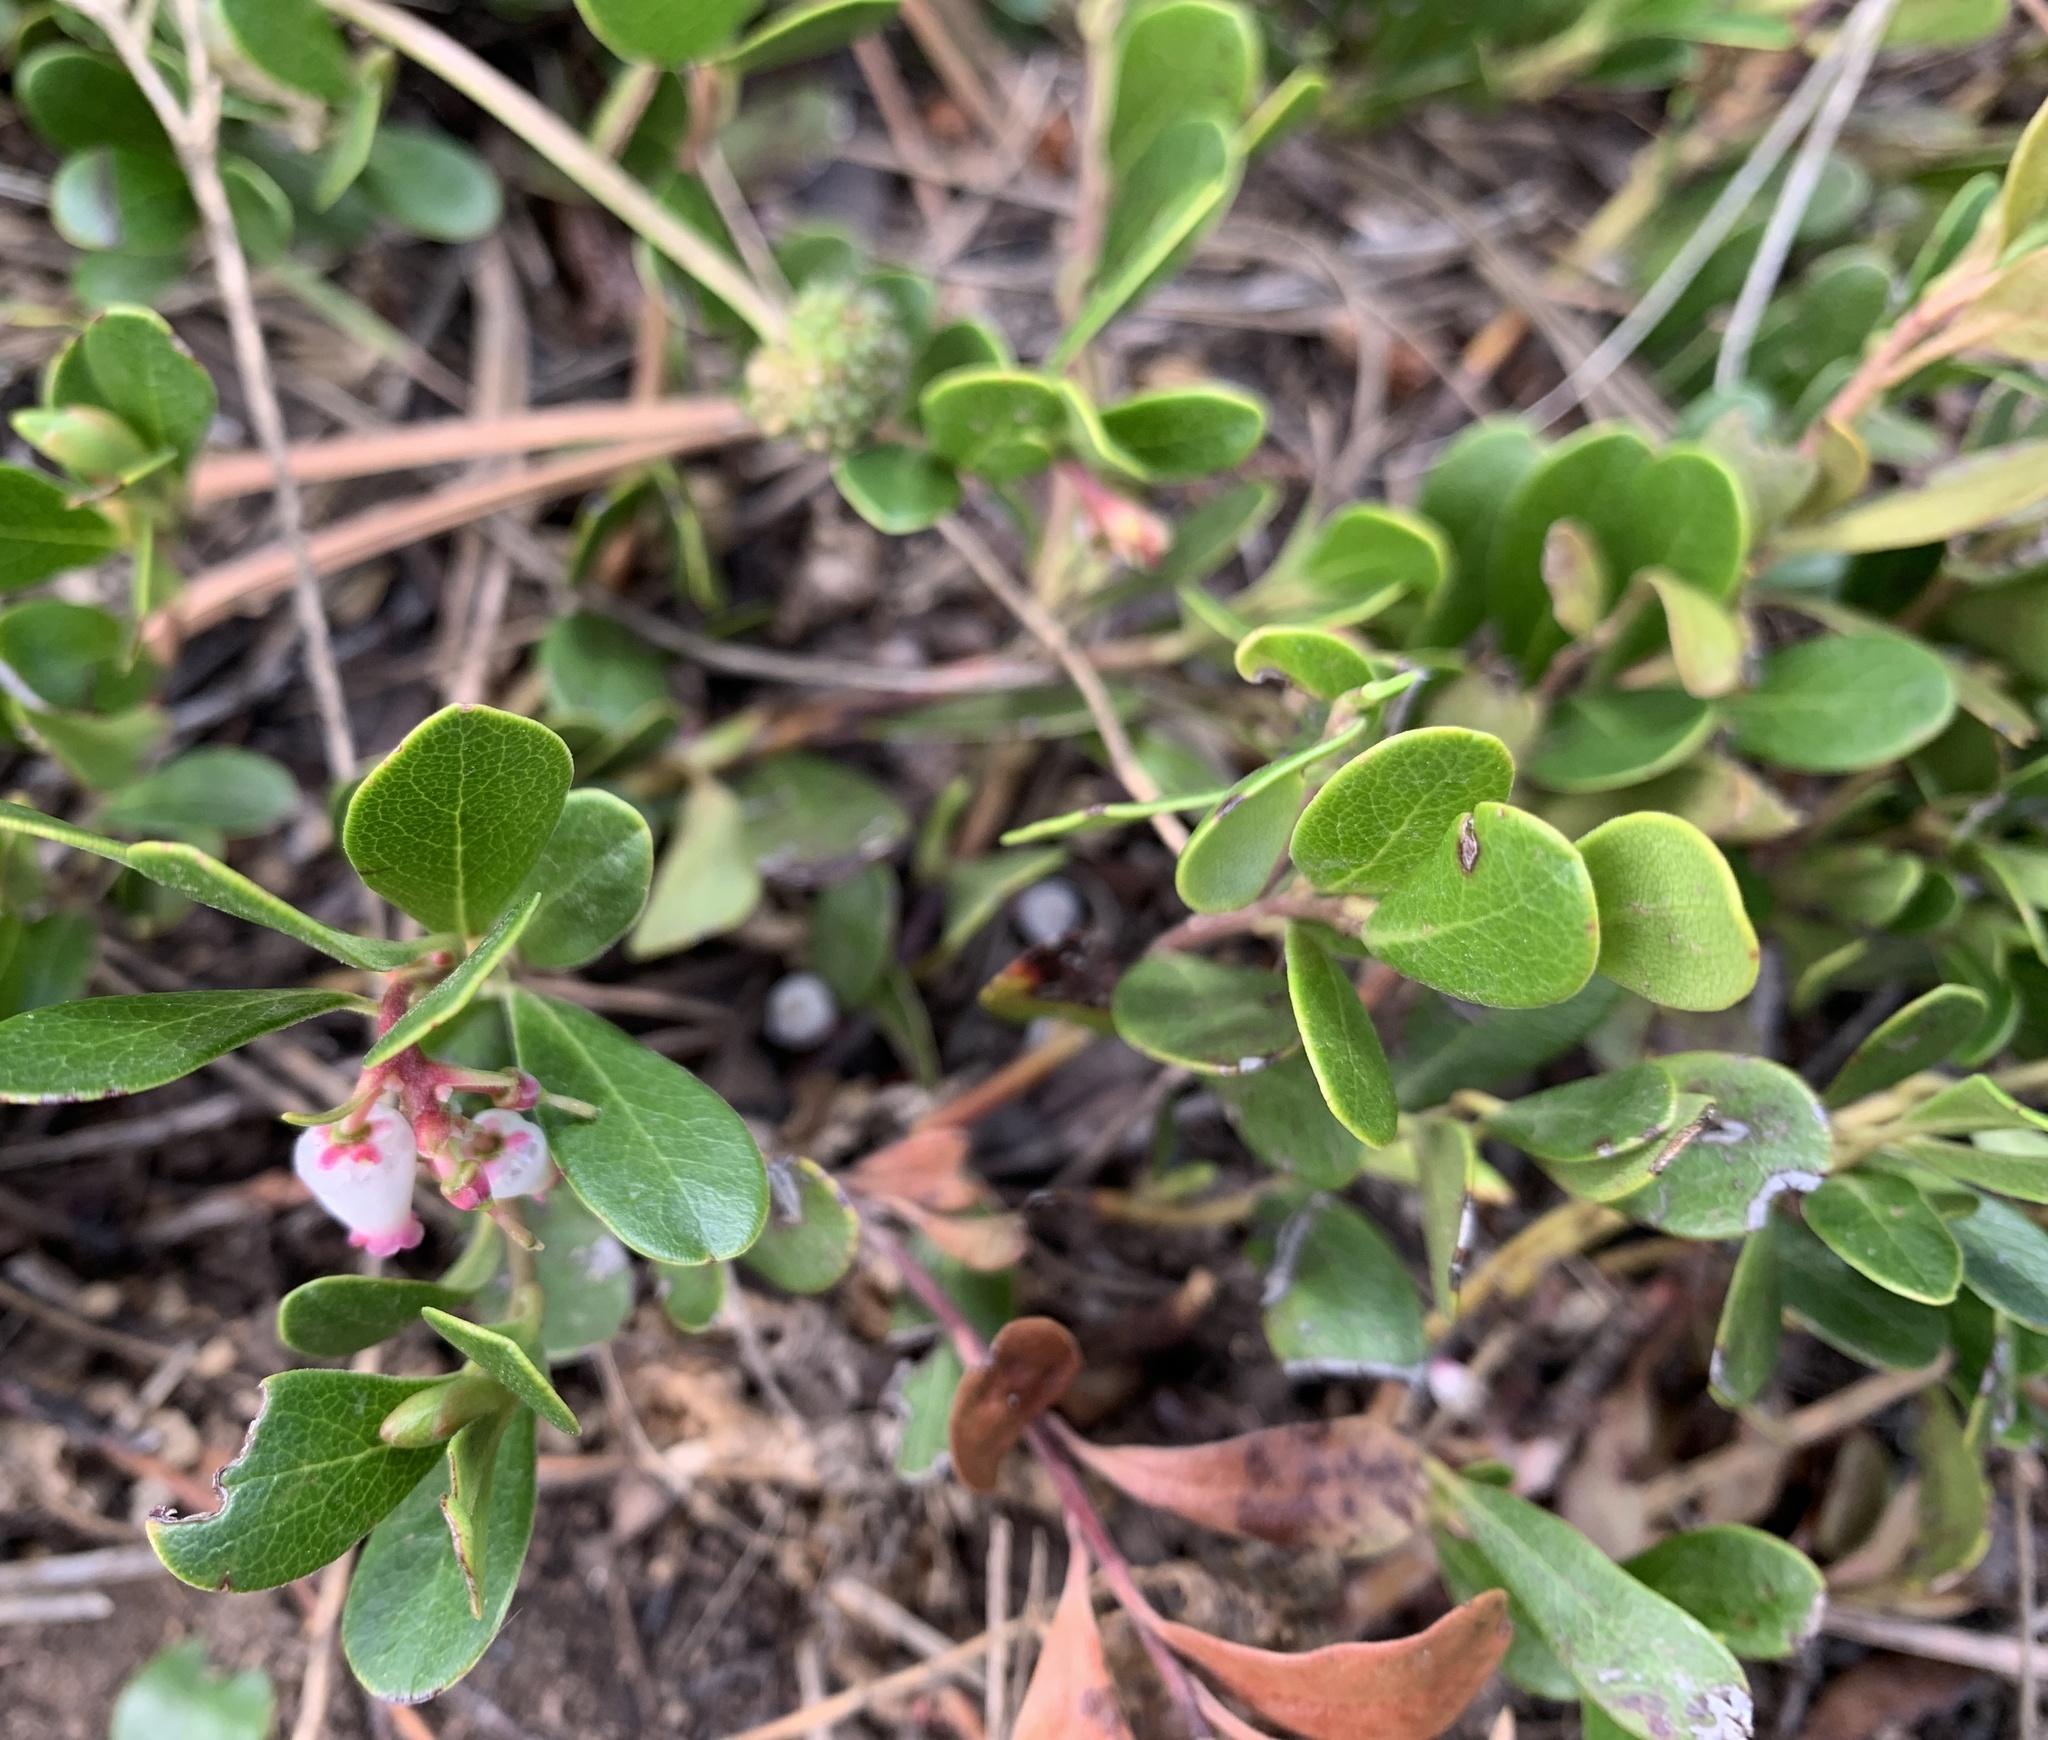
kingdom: Plantae
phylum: Tracheophyta
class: Magnoliopsida
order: Ericales
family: Ericaceae
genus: Arctostaphylos
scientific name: Arctostaphylos uva-ursi
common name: Bearberry
